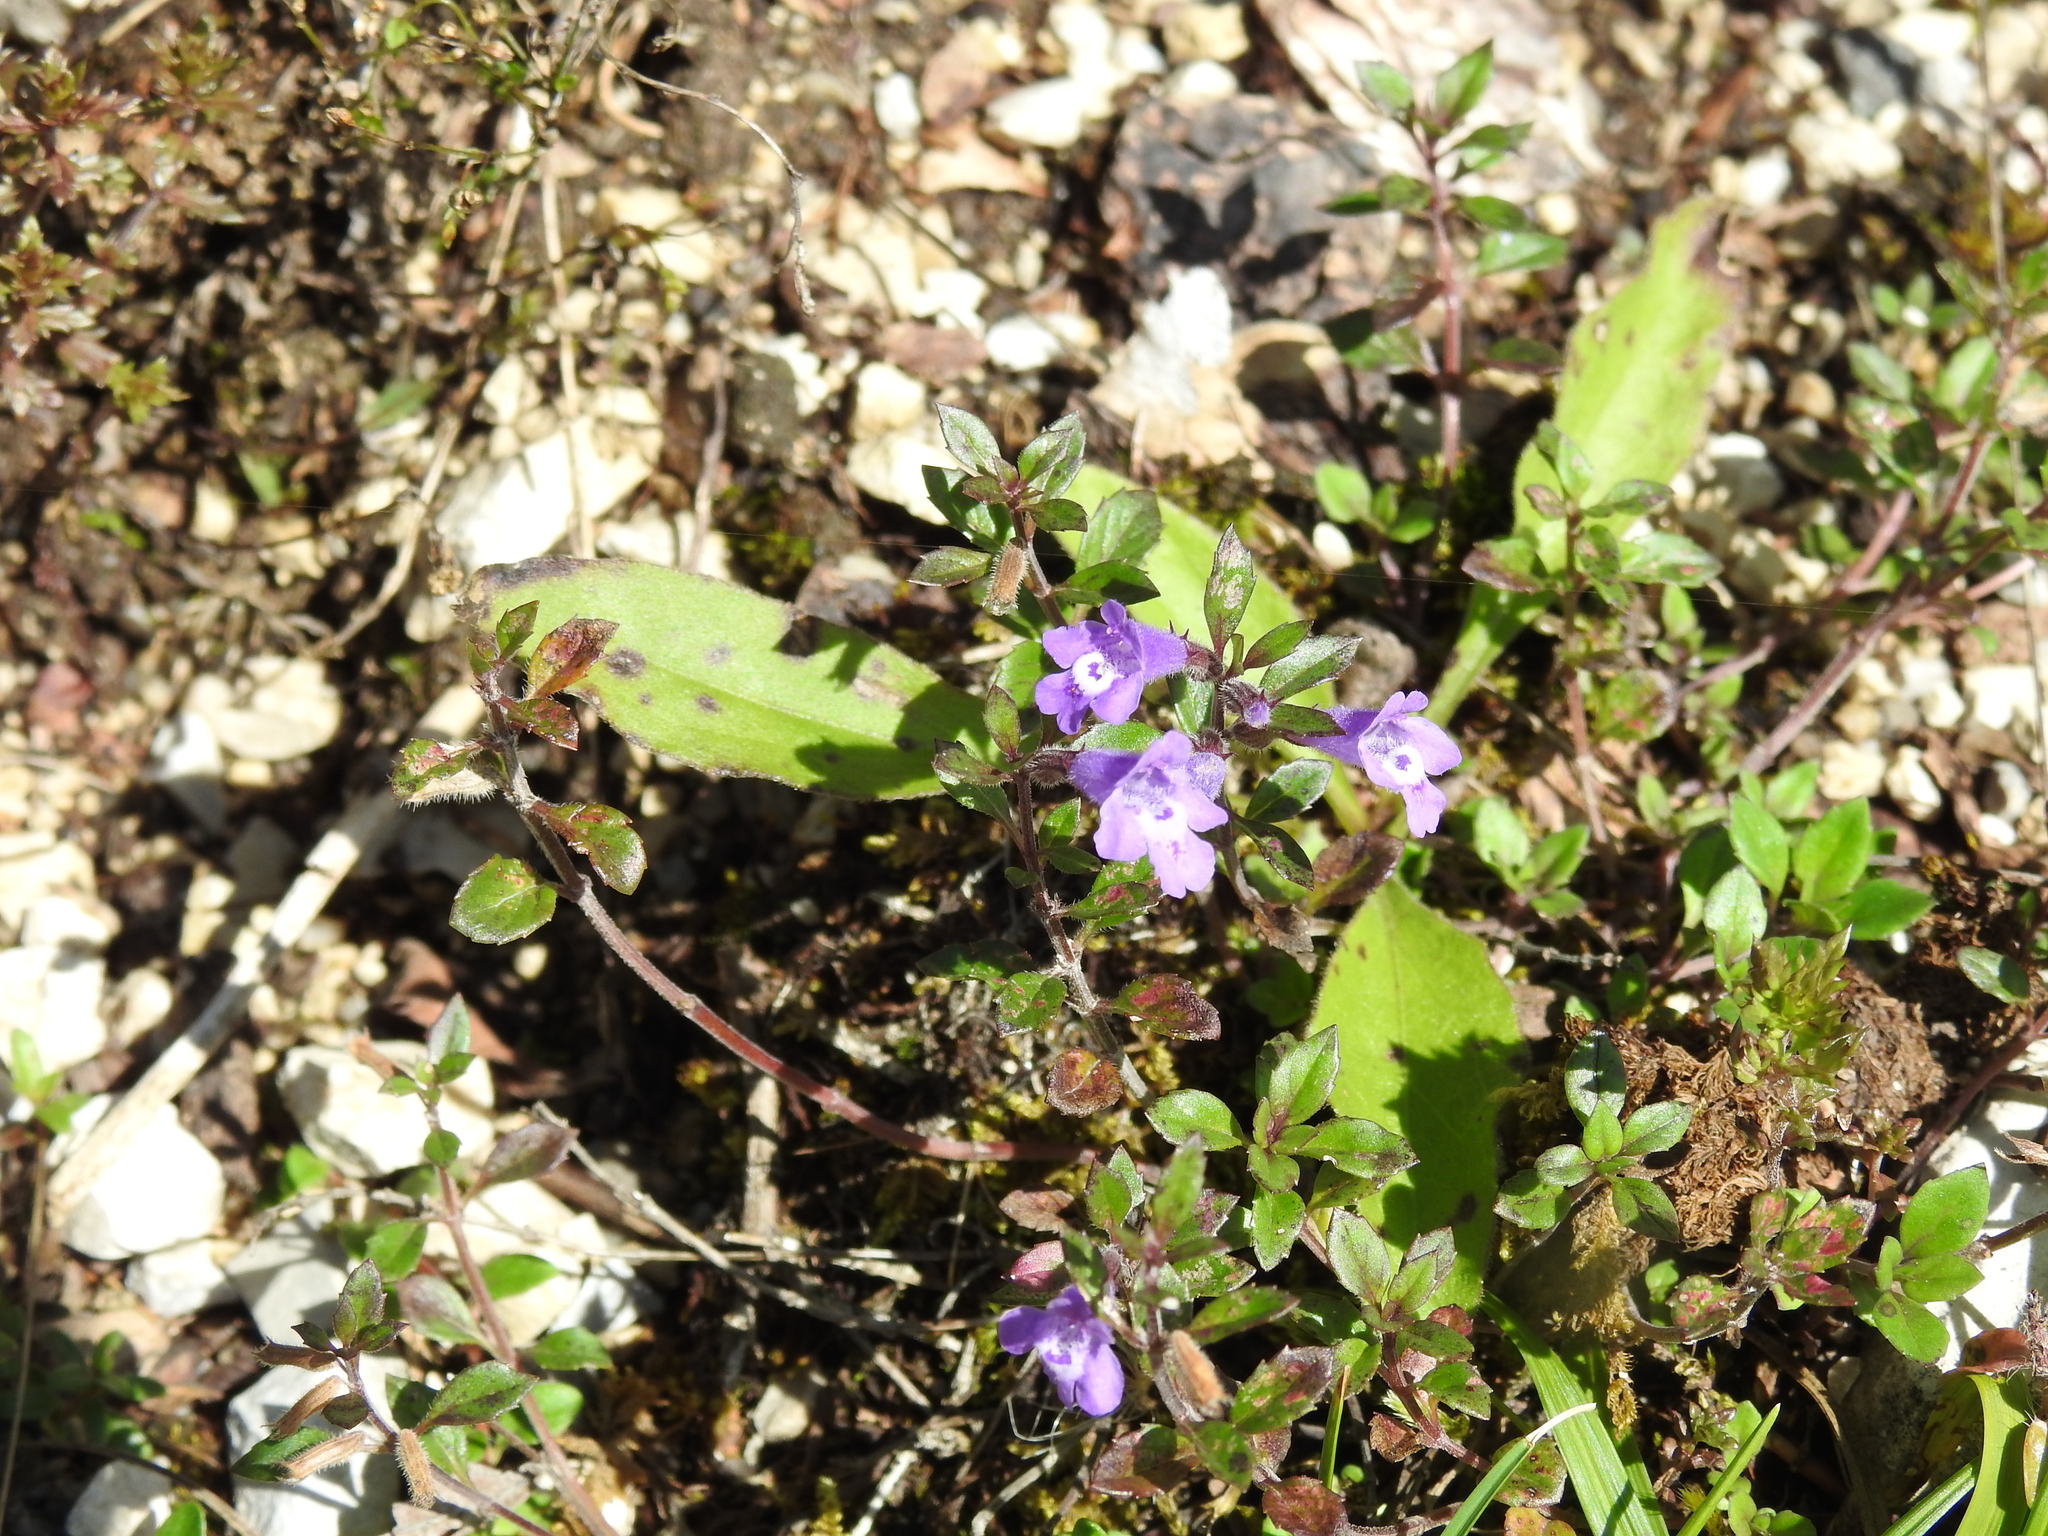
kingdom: Plantae
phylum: Tracheophyta
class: Magnoliopsida
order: Lamiales
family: Lamiaceae
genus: Clinopodium
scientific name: Clinopodium alpinum
